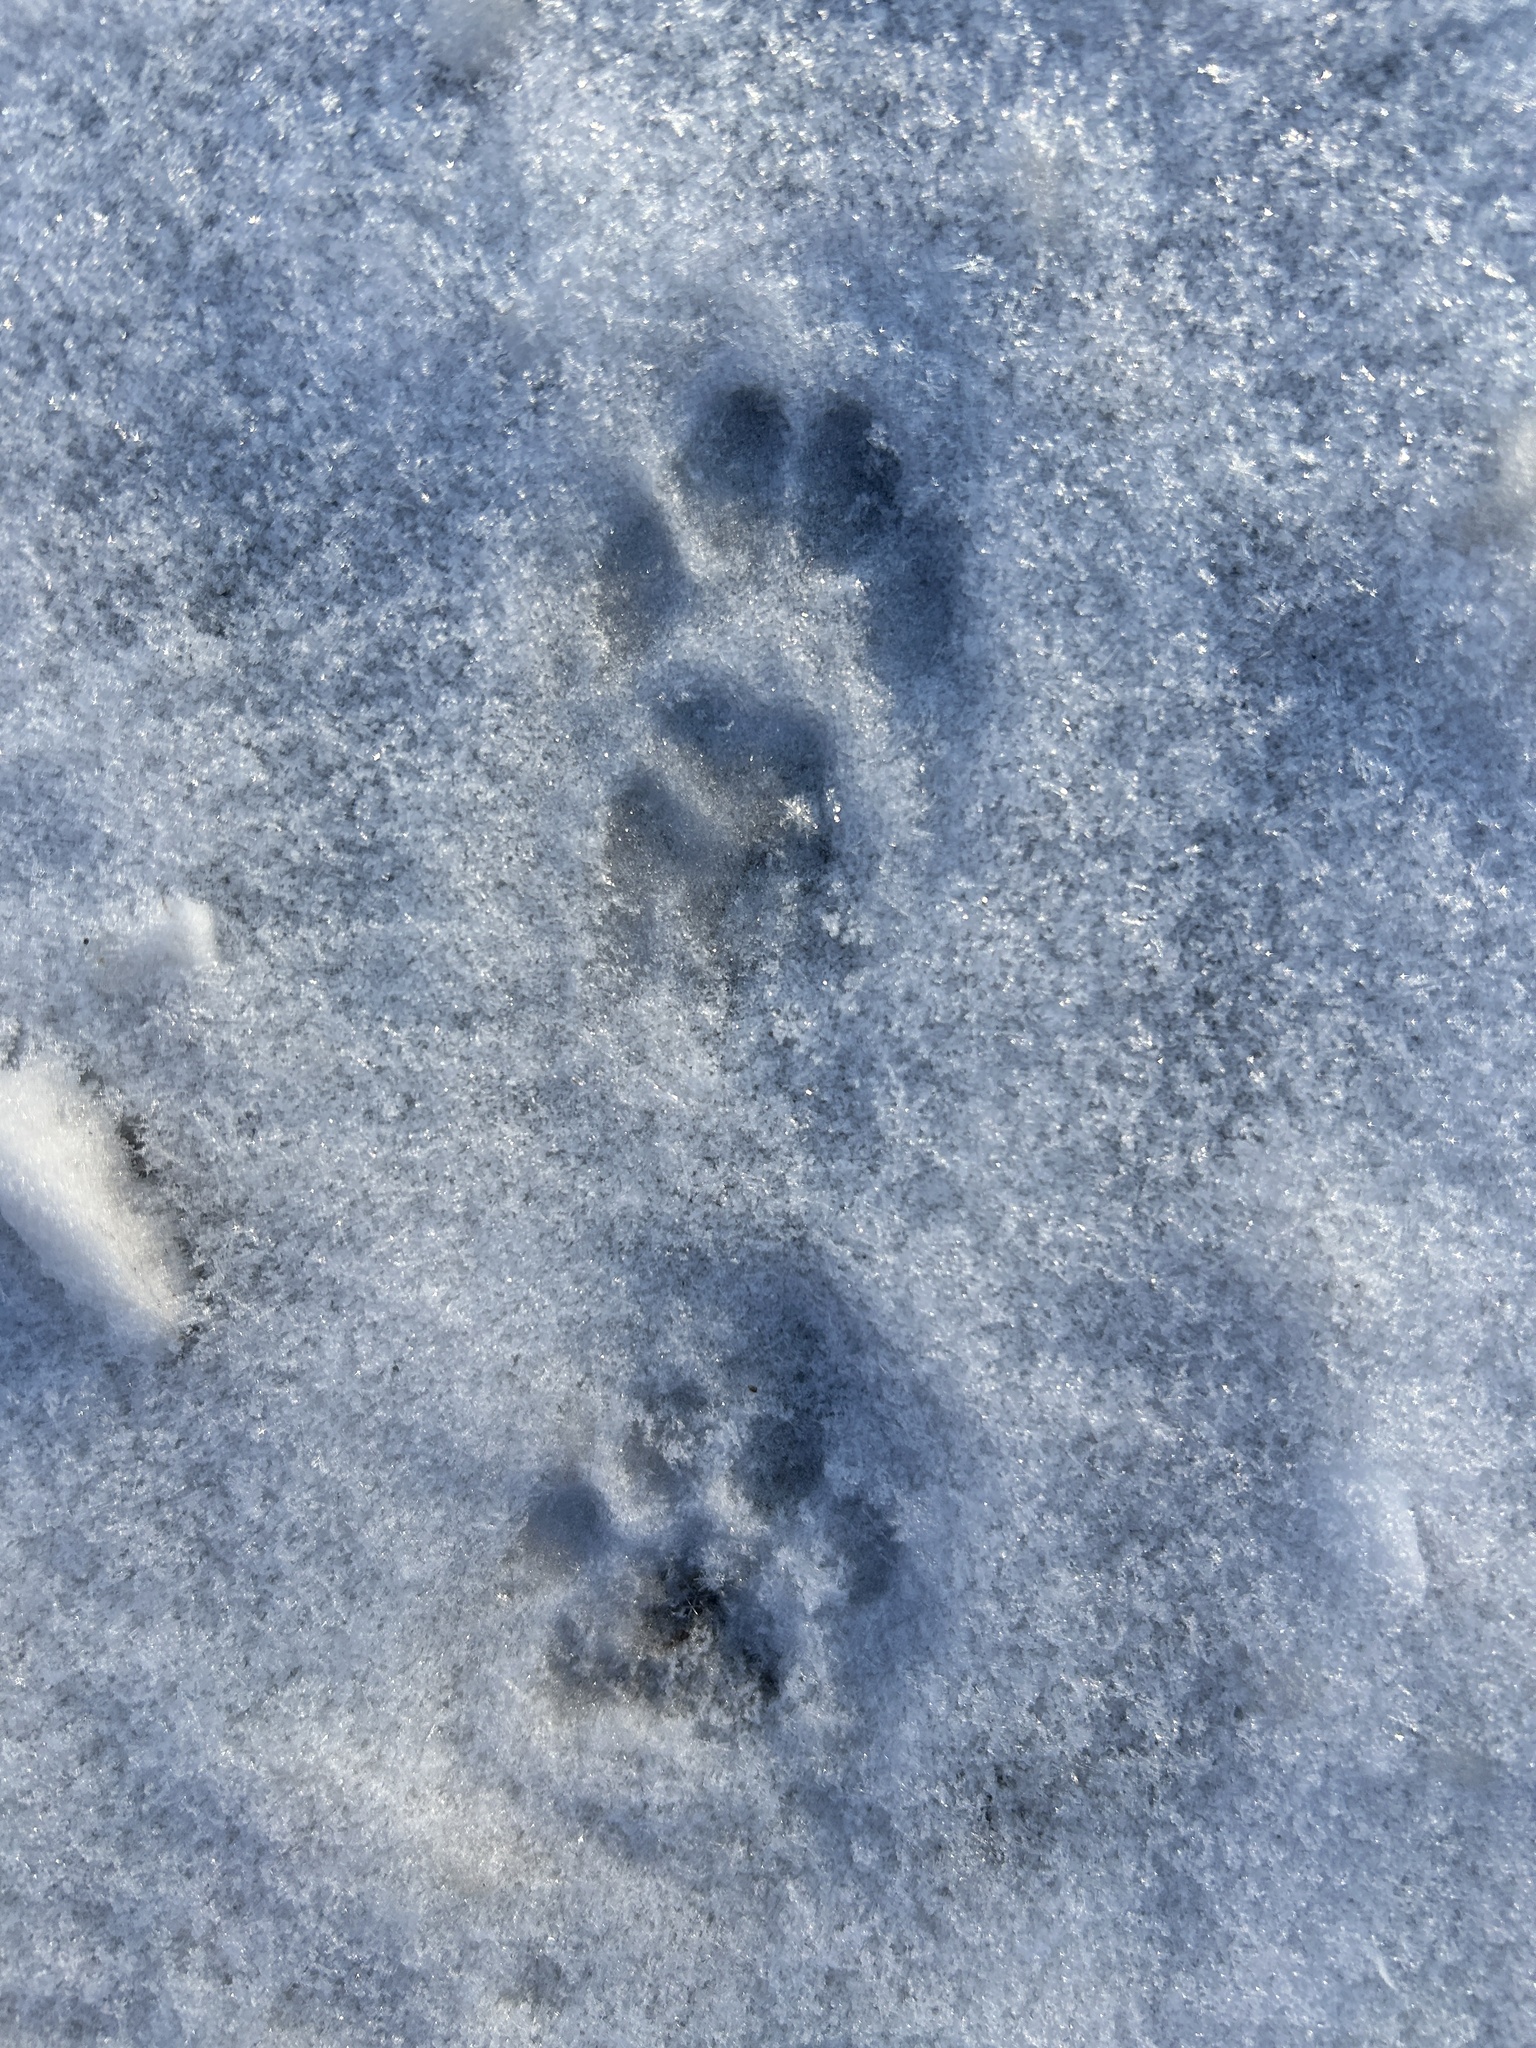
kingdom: Animalia
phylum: Chordata
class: Mammalia
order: Carnivora
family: Felidae
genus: Felis
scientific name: Felis catus
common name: Domestic cat
